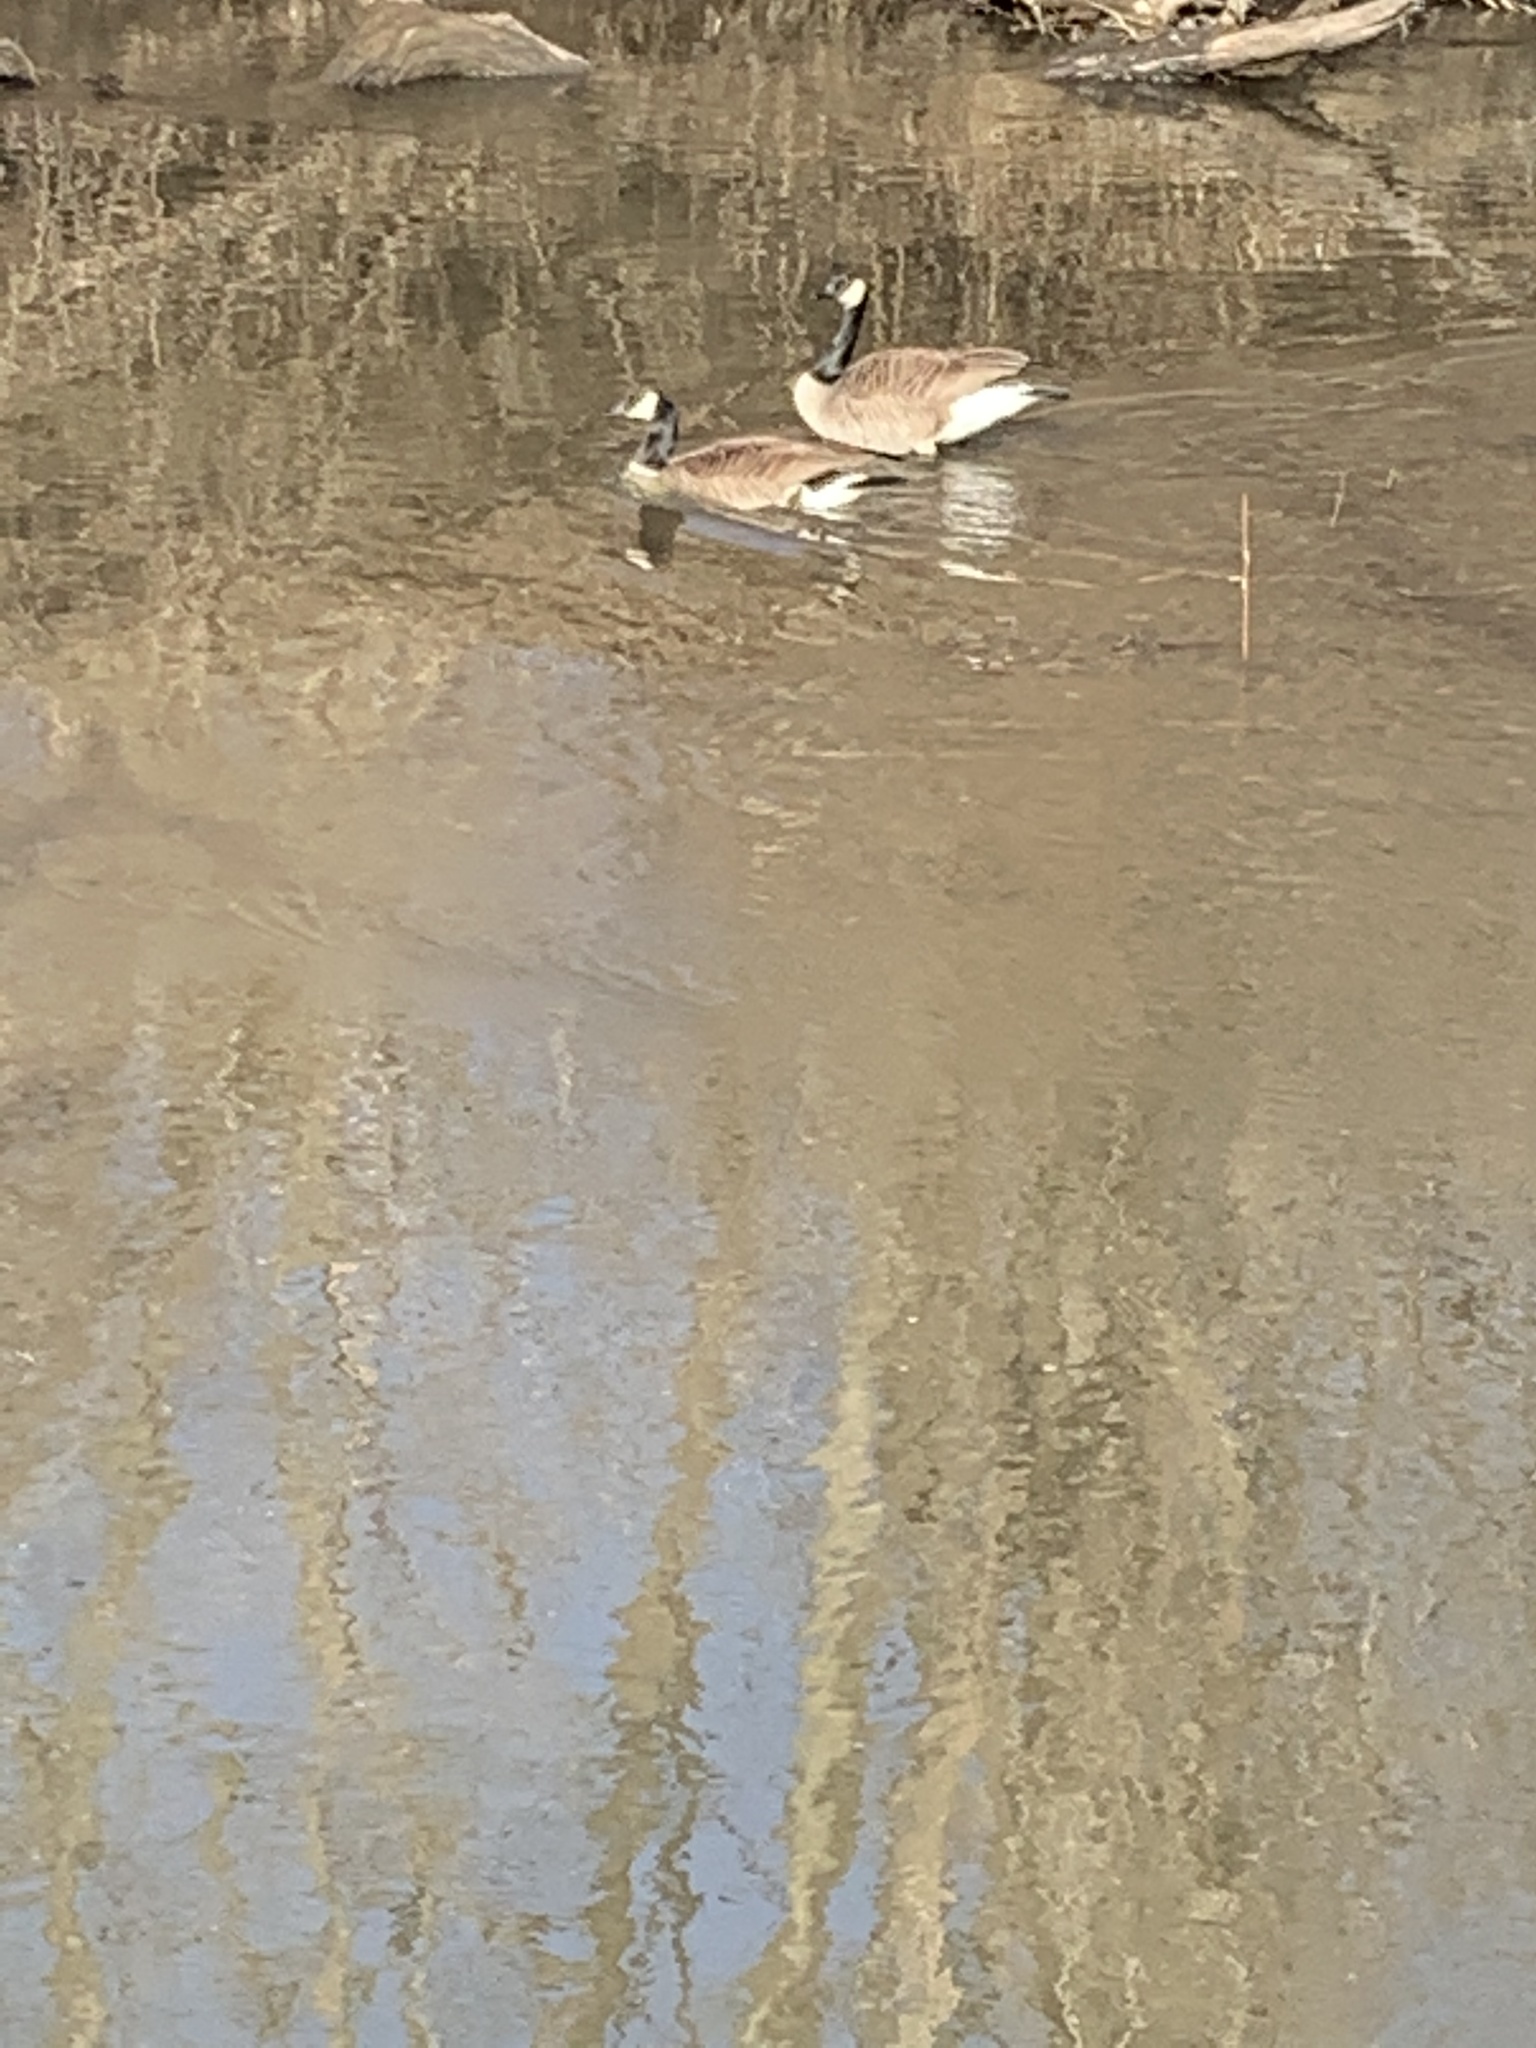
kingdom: Animalia
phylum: Chordata
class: Aves
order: Anseriformes
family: Anatidae
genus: Branta
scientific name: Branta canadensis
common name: Canada goose
